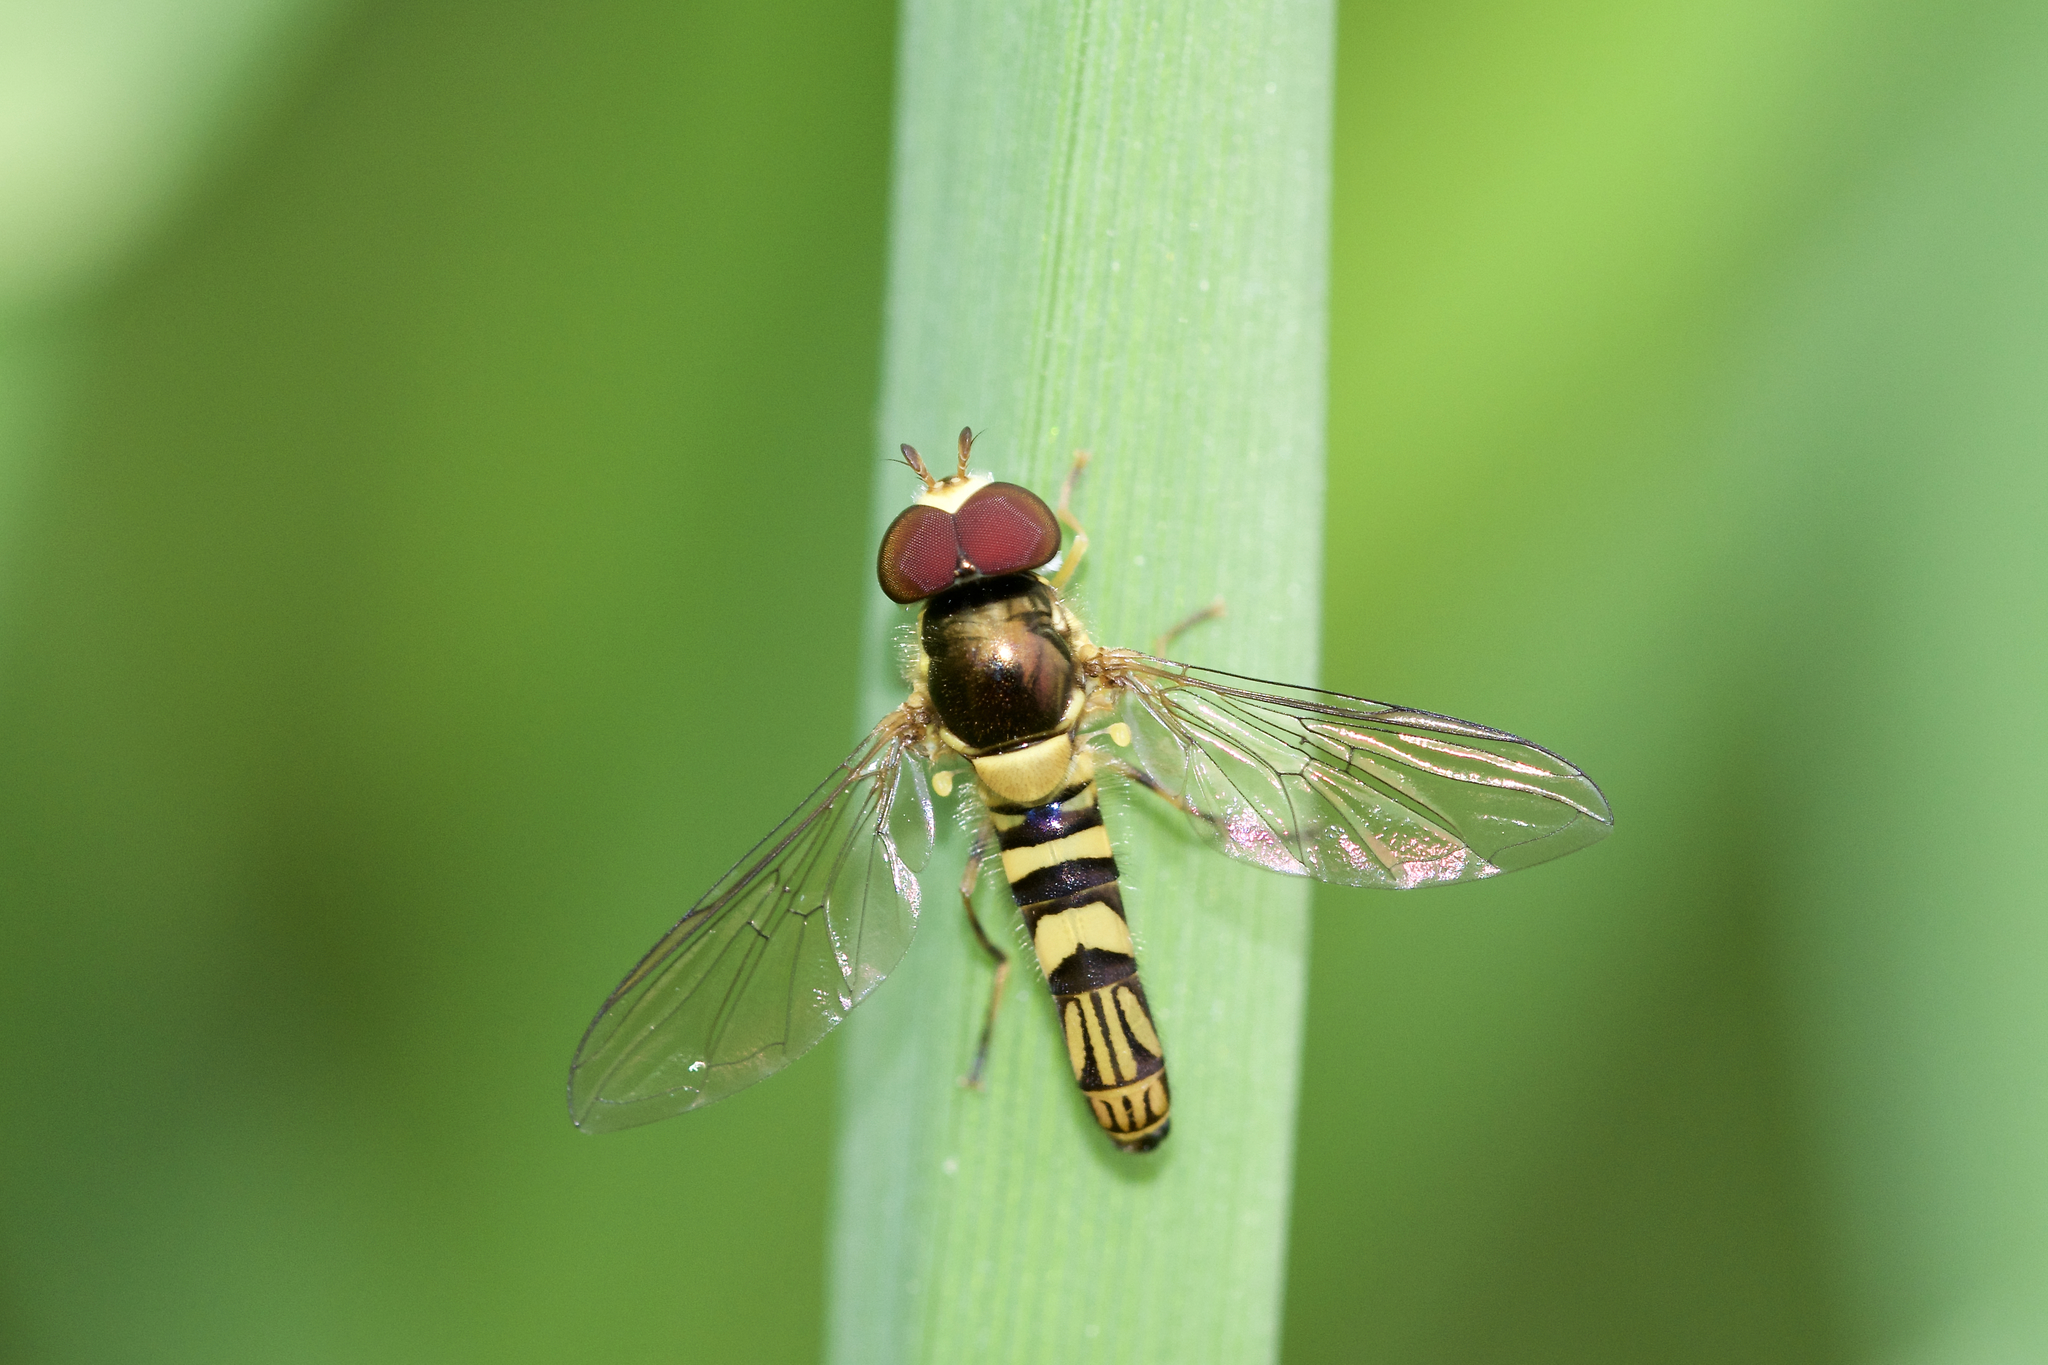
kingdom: Animalia
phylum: Arthropoda
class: Insecta
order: Diptera
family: Syrphidae
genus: Allograpta
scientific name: Allograpta obliqua
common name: Common oblique syrphid
